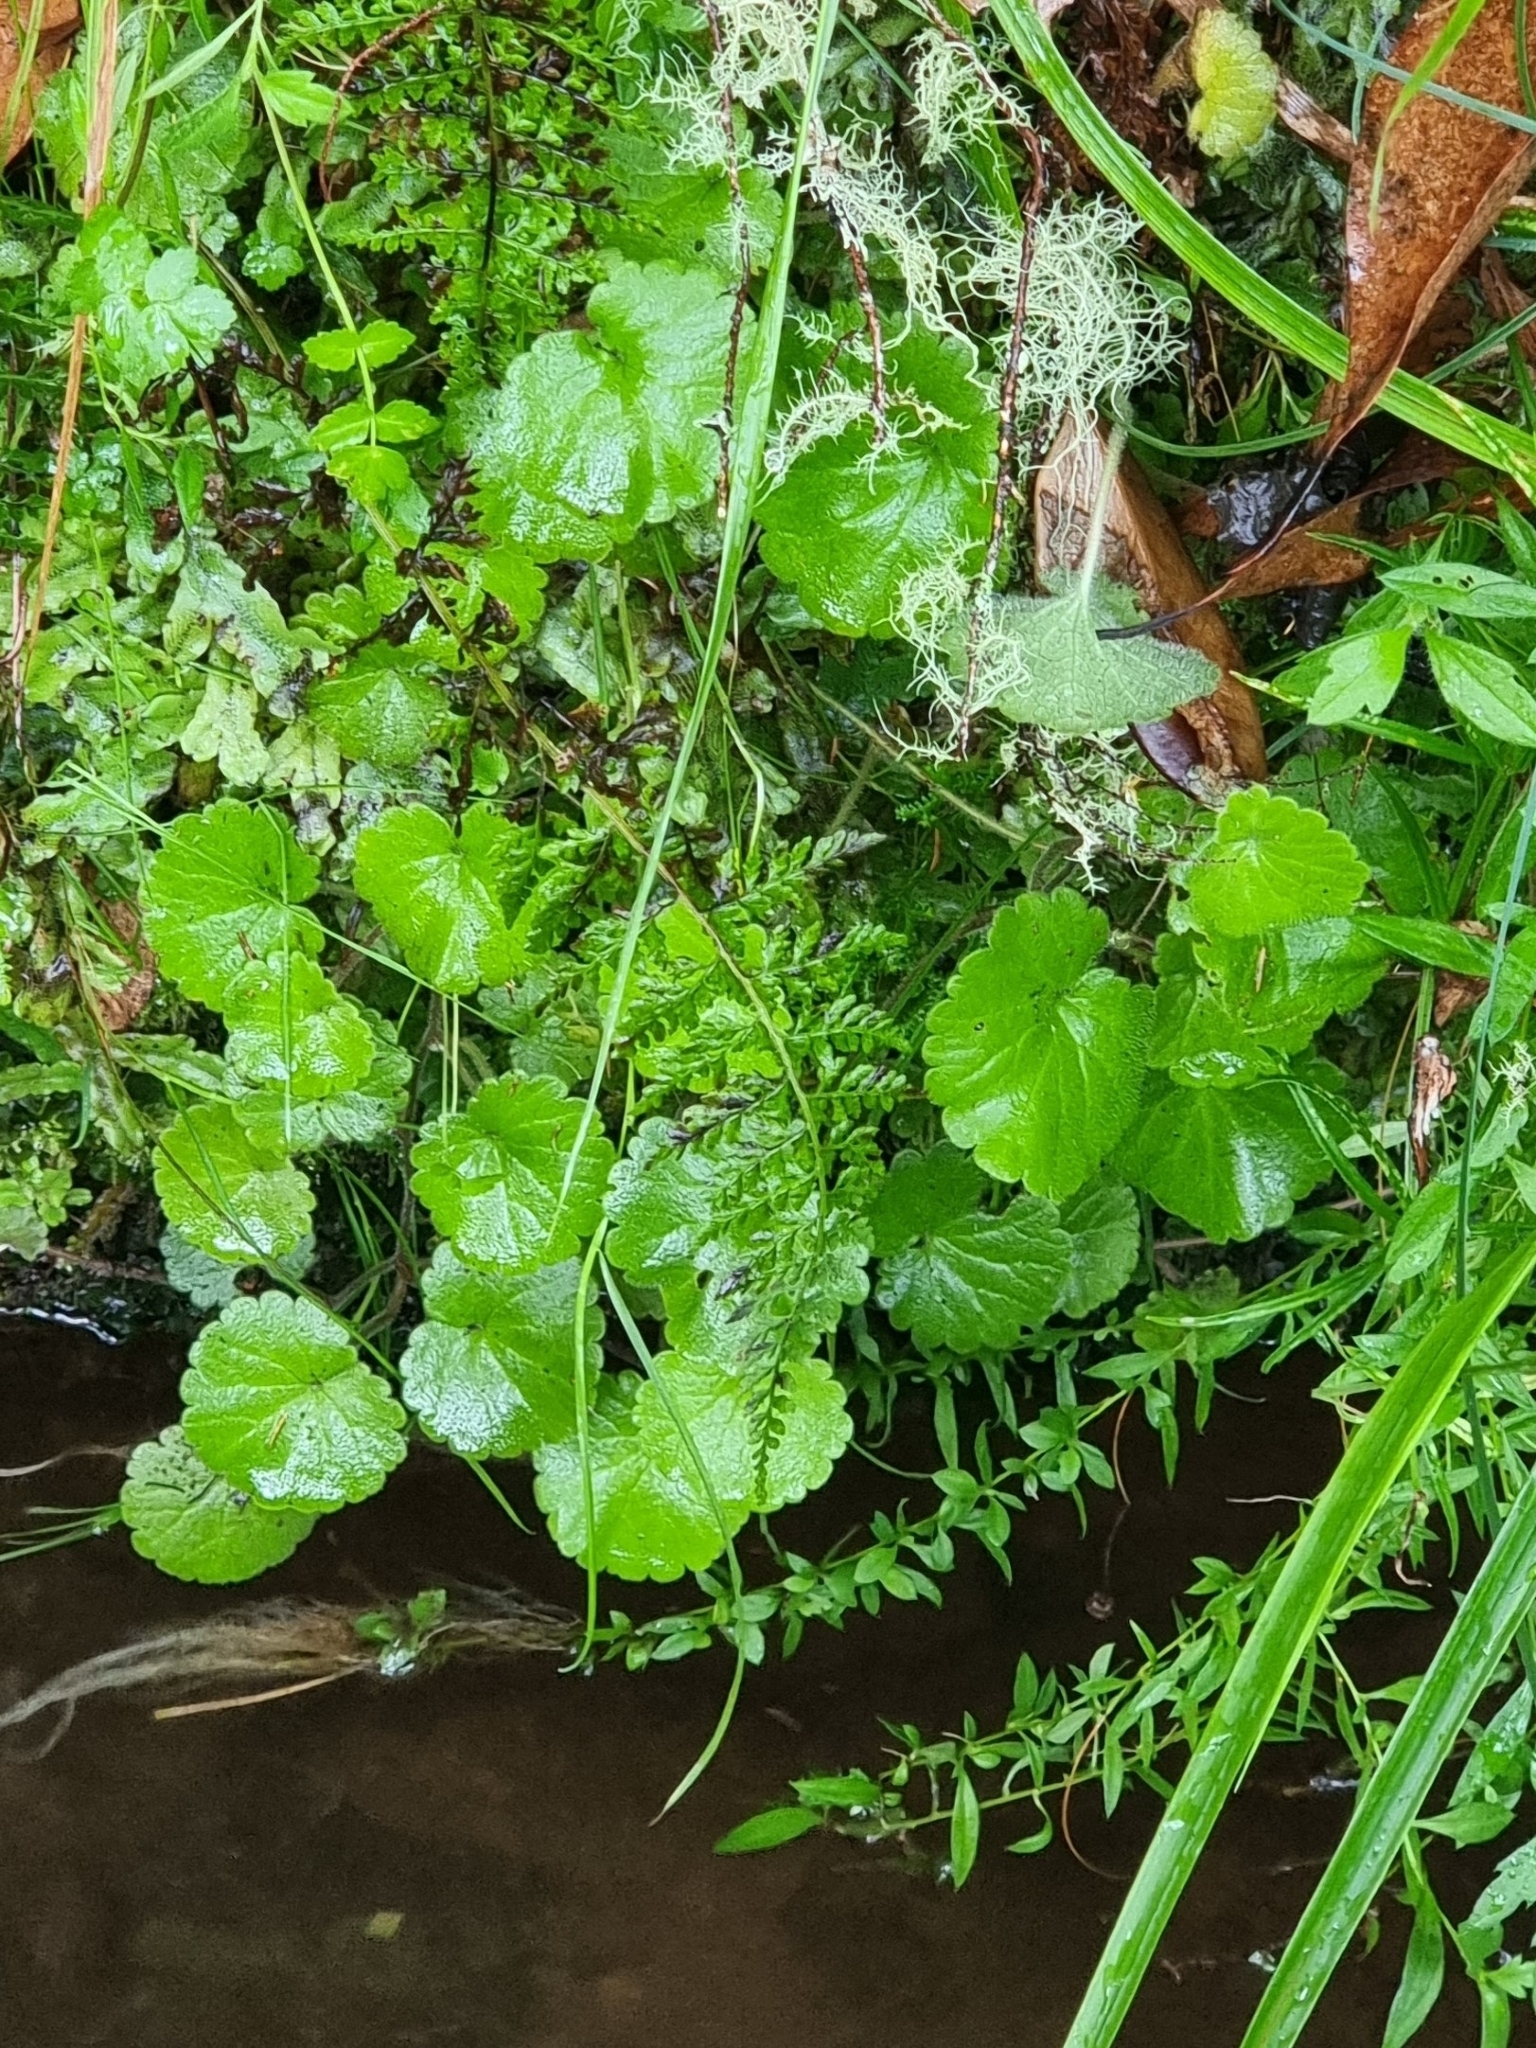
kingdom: Plantae
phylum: Tracheophyta
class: Magnoliopsida
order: Lamiales
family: Plantaginaceae
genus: Sibthorpia
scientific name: Sibthorpia peregrina
